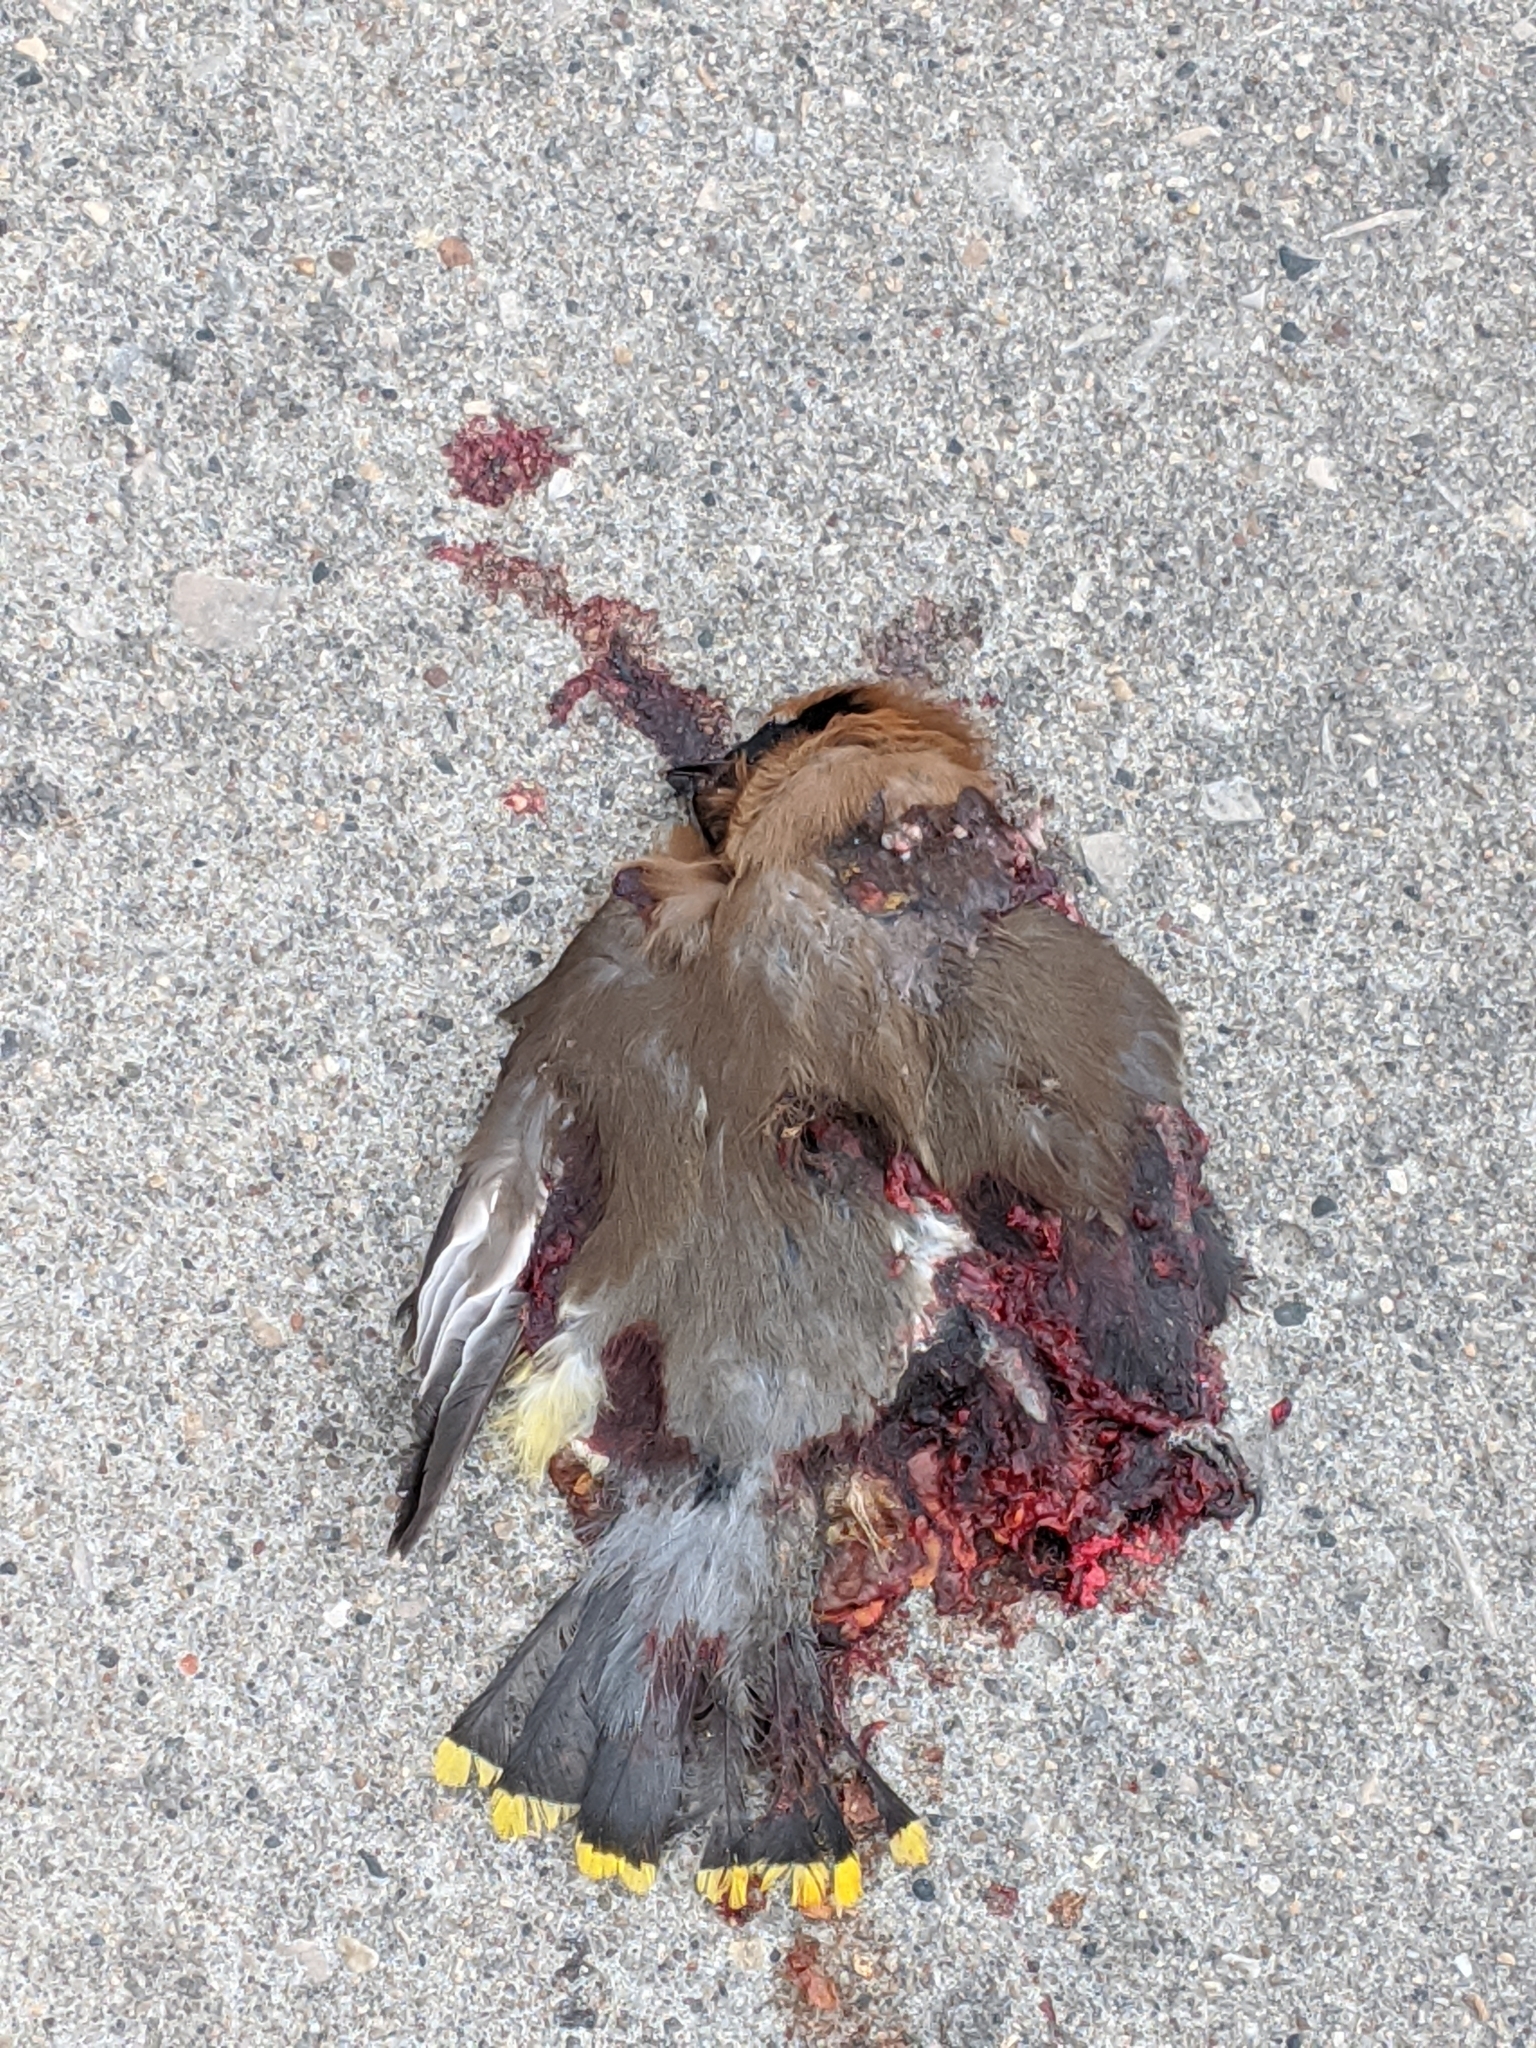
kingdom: Animalia
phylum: Chordata
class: Aves
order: Passeriformes
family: Bombycillidae
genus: Bombycilla
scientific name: Bombycilla cedrorum
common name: Cedar waxwing
